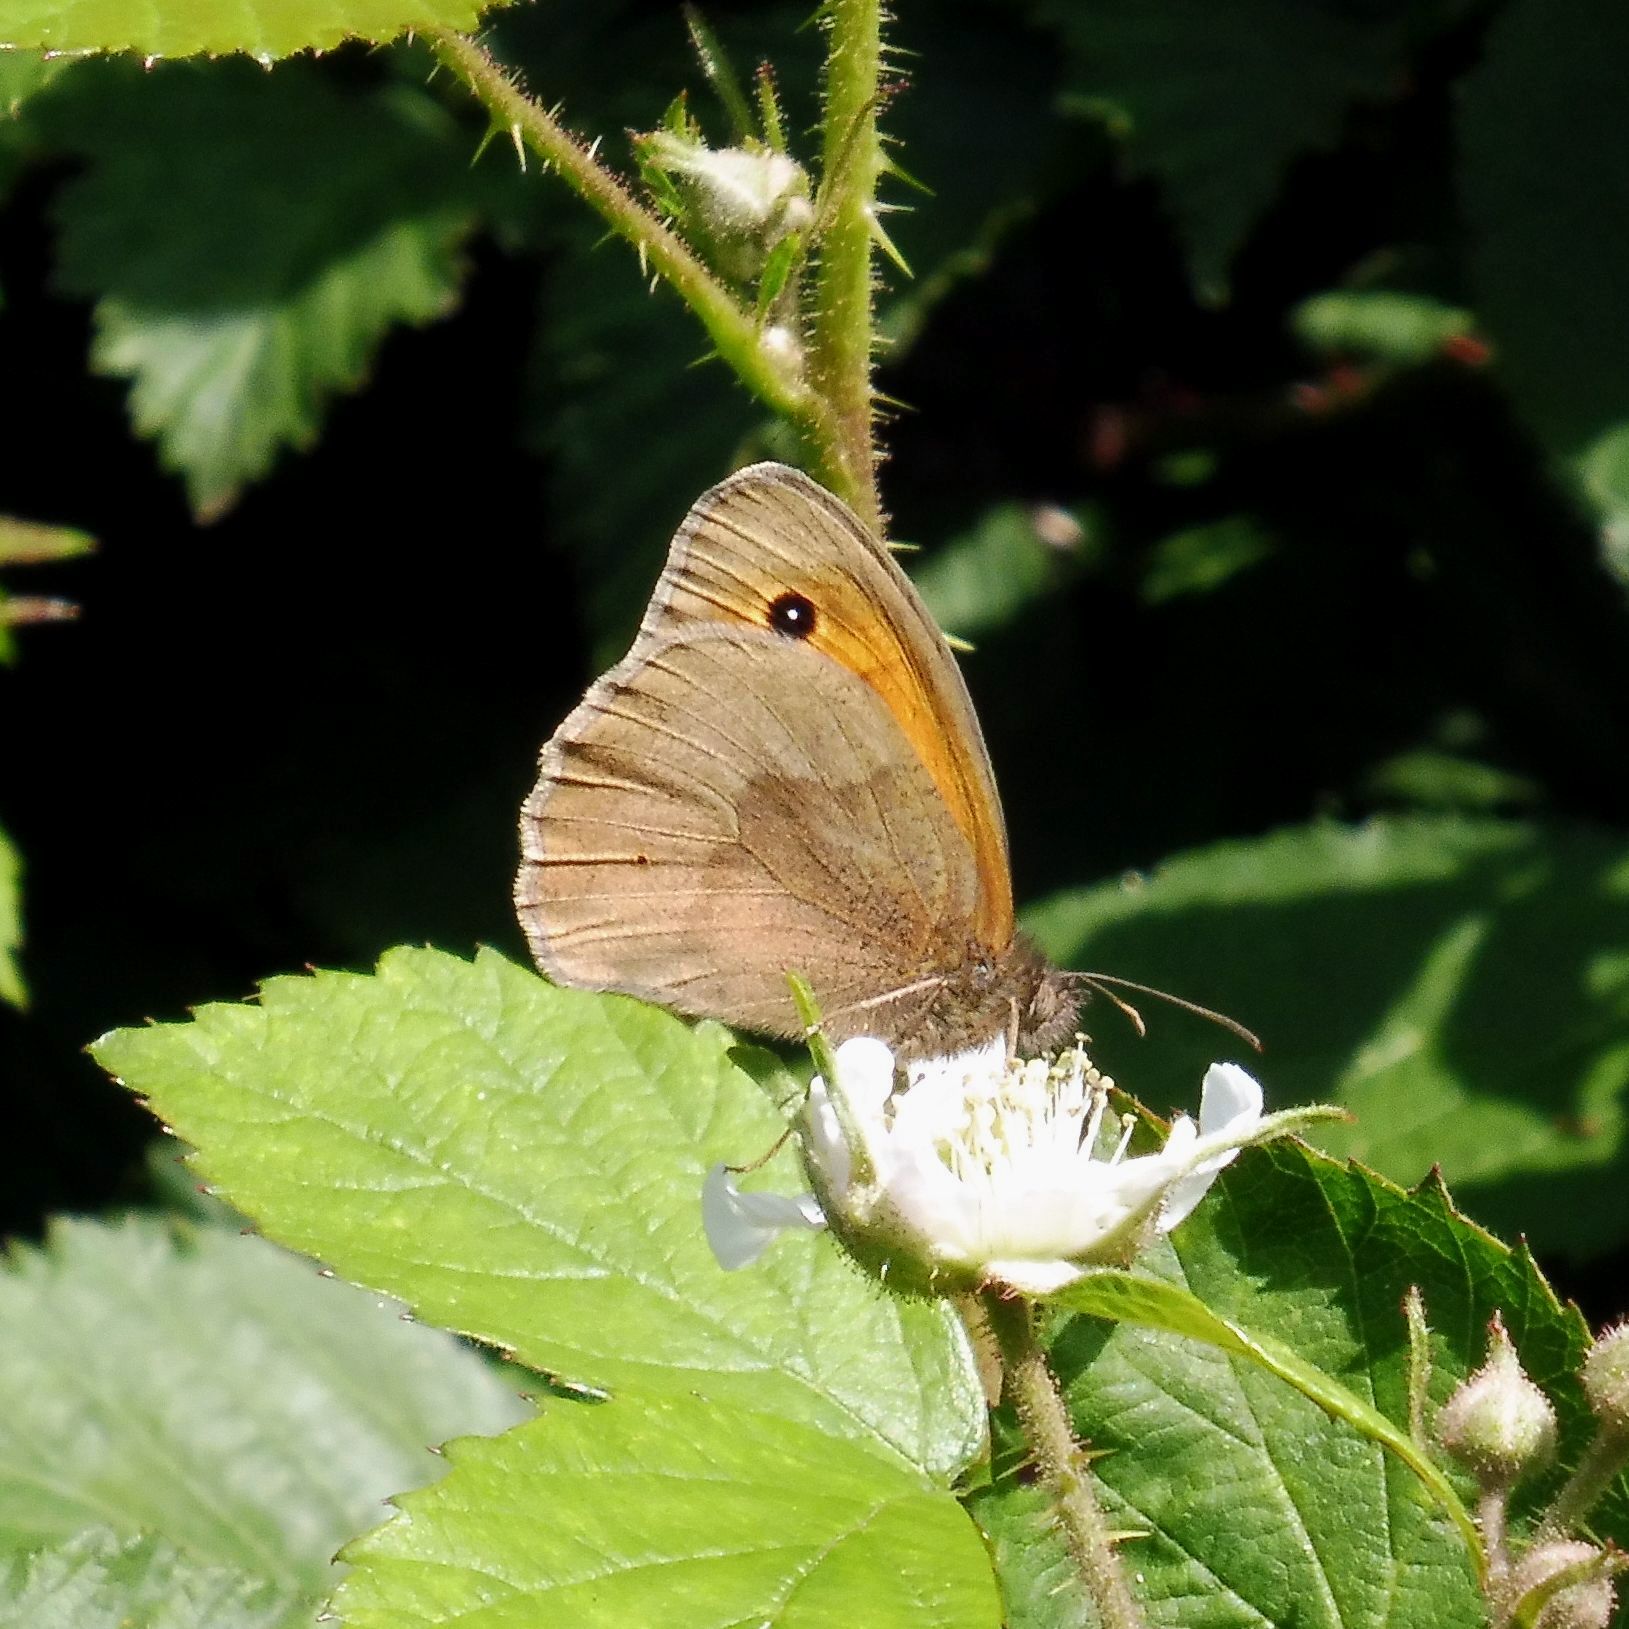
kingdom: Animalia
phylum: Arthropoda
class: Insecta
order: Lepidoptera
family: Nymphalidae
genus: Maniola
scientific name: Maniola jurtina
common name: Meadow brown
